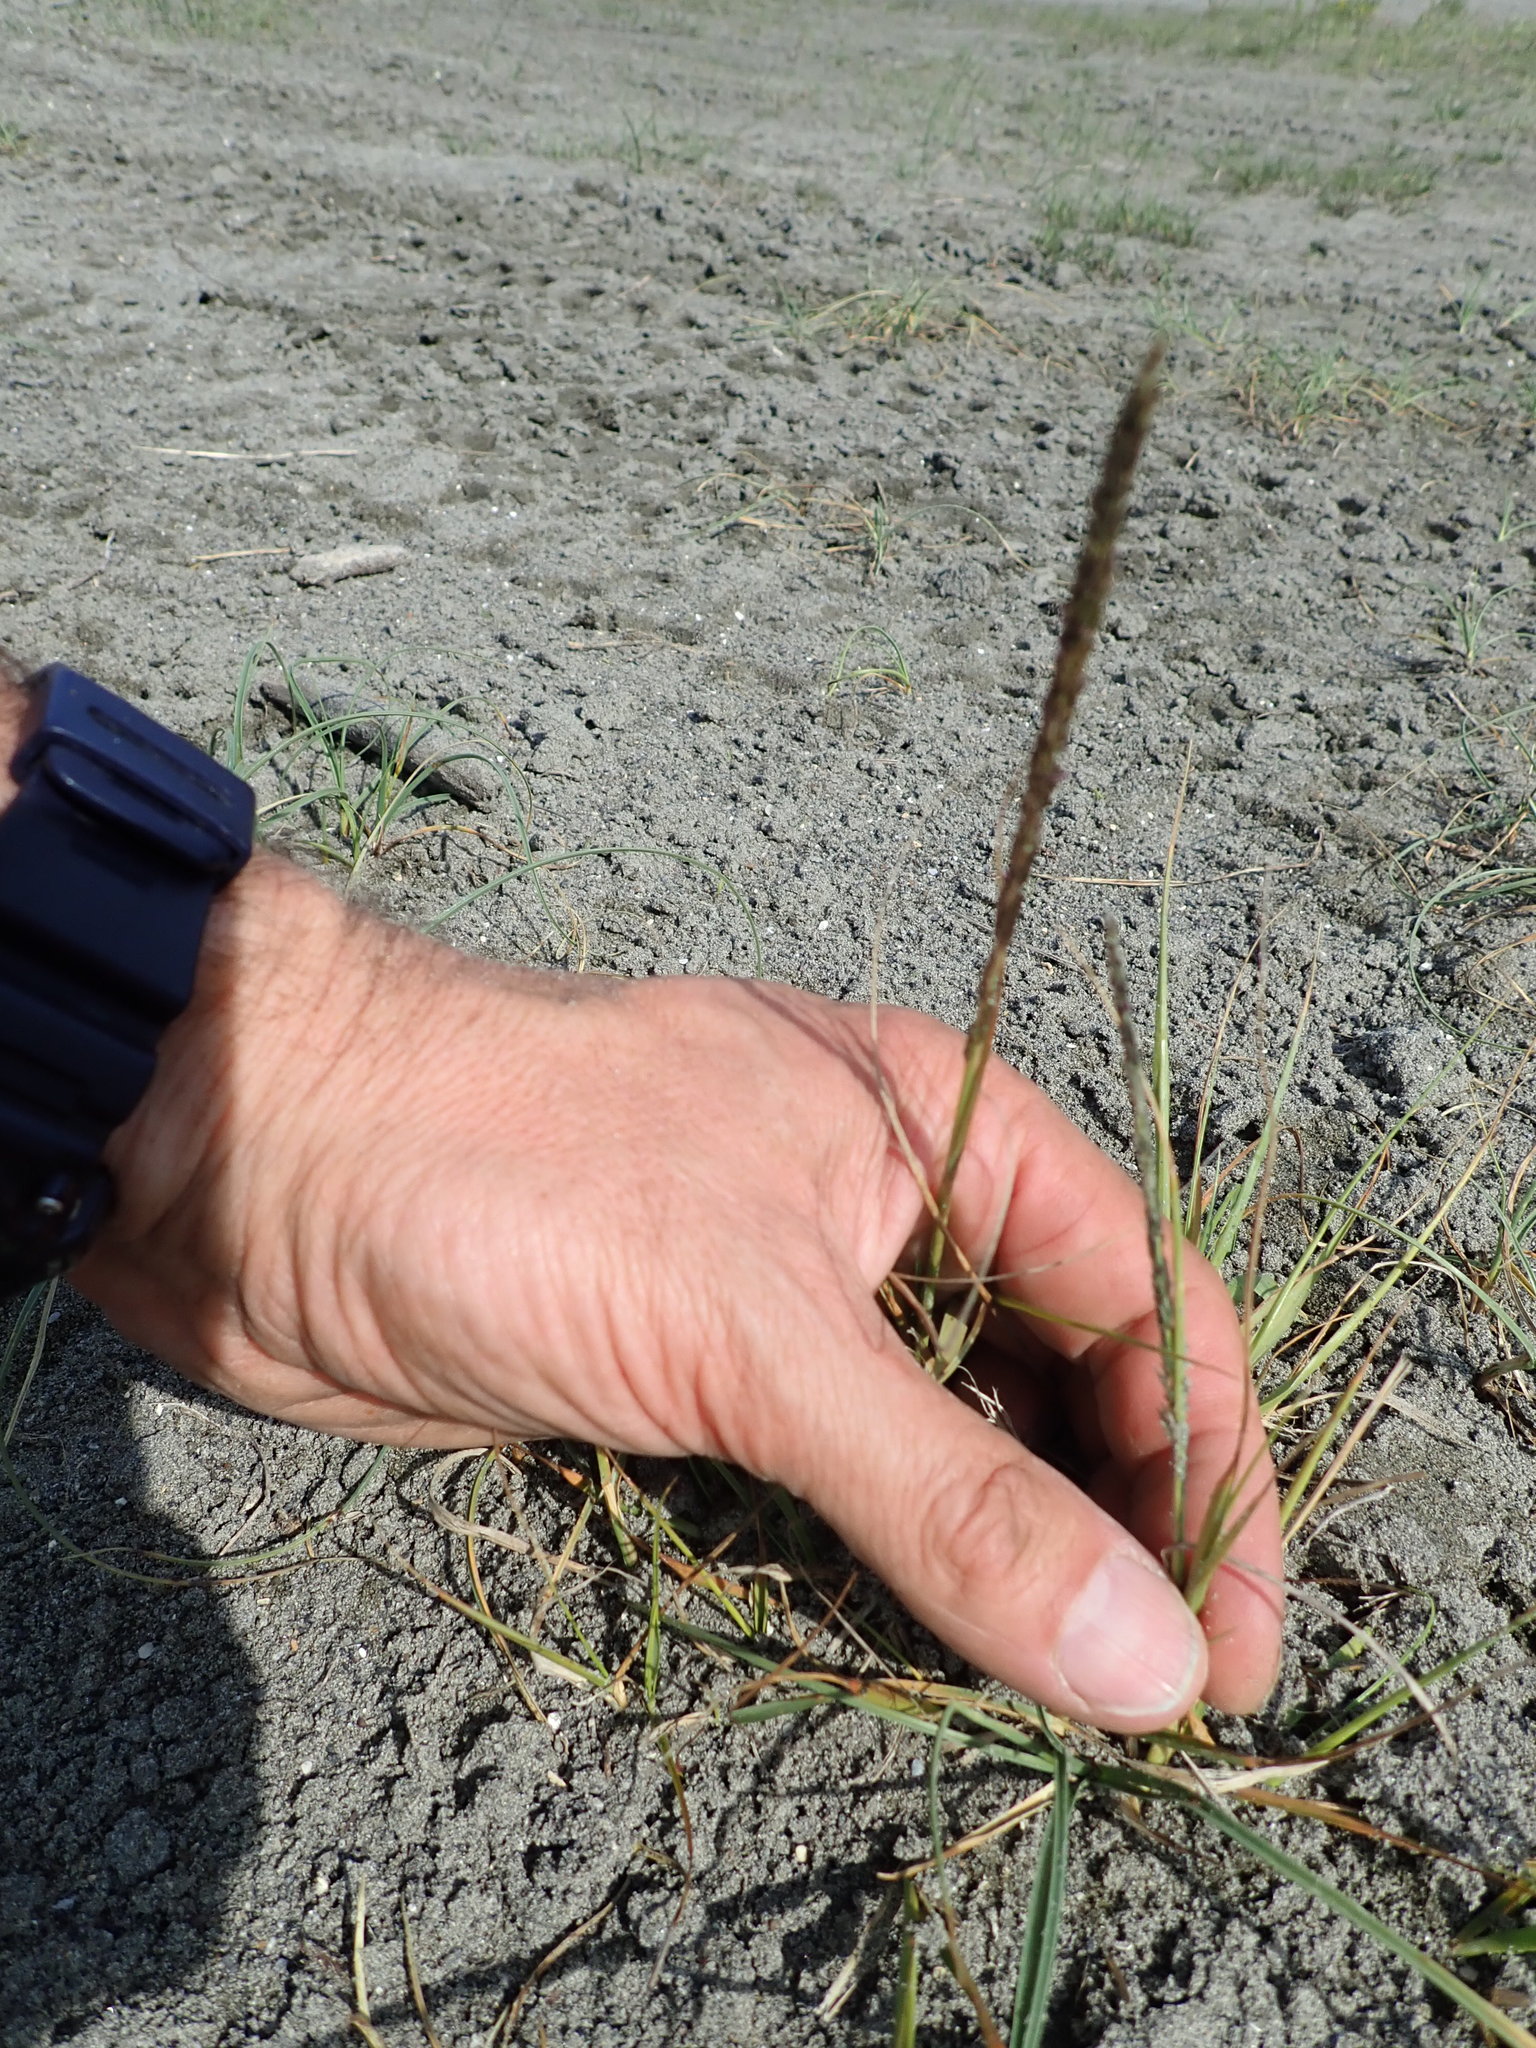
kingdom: Plantae
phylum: Tracheophyta
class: Liliopsida
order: Poales
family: Poaceae
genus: Sporobolus
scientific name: Sporobolus africanus
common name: African dropseed
